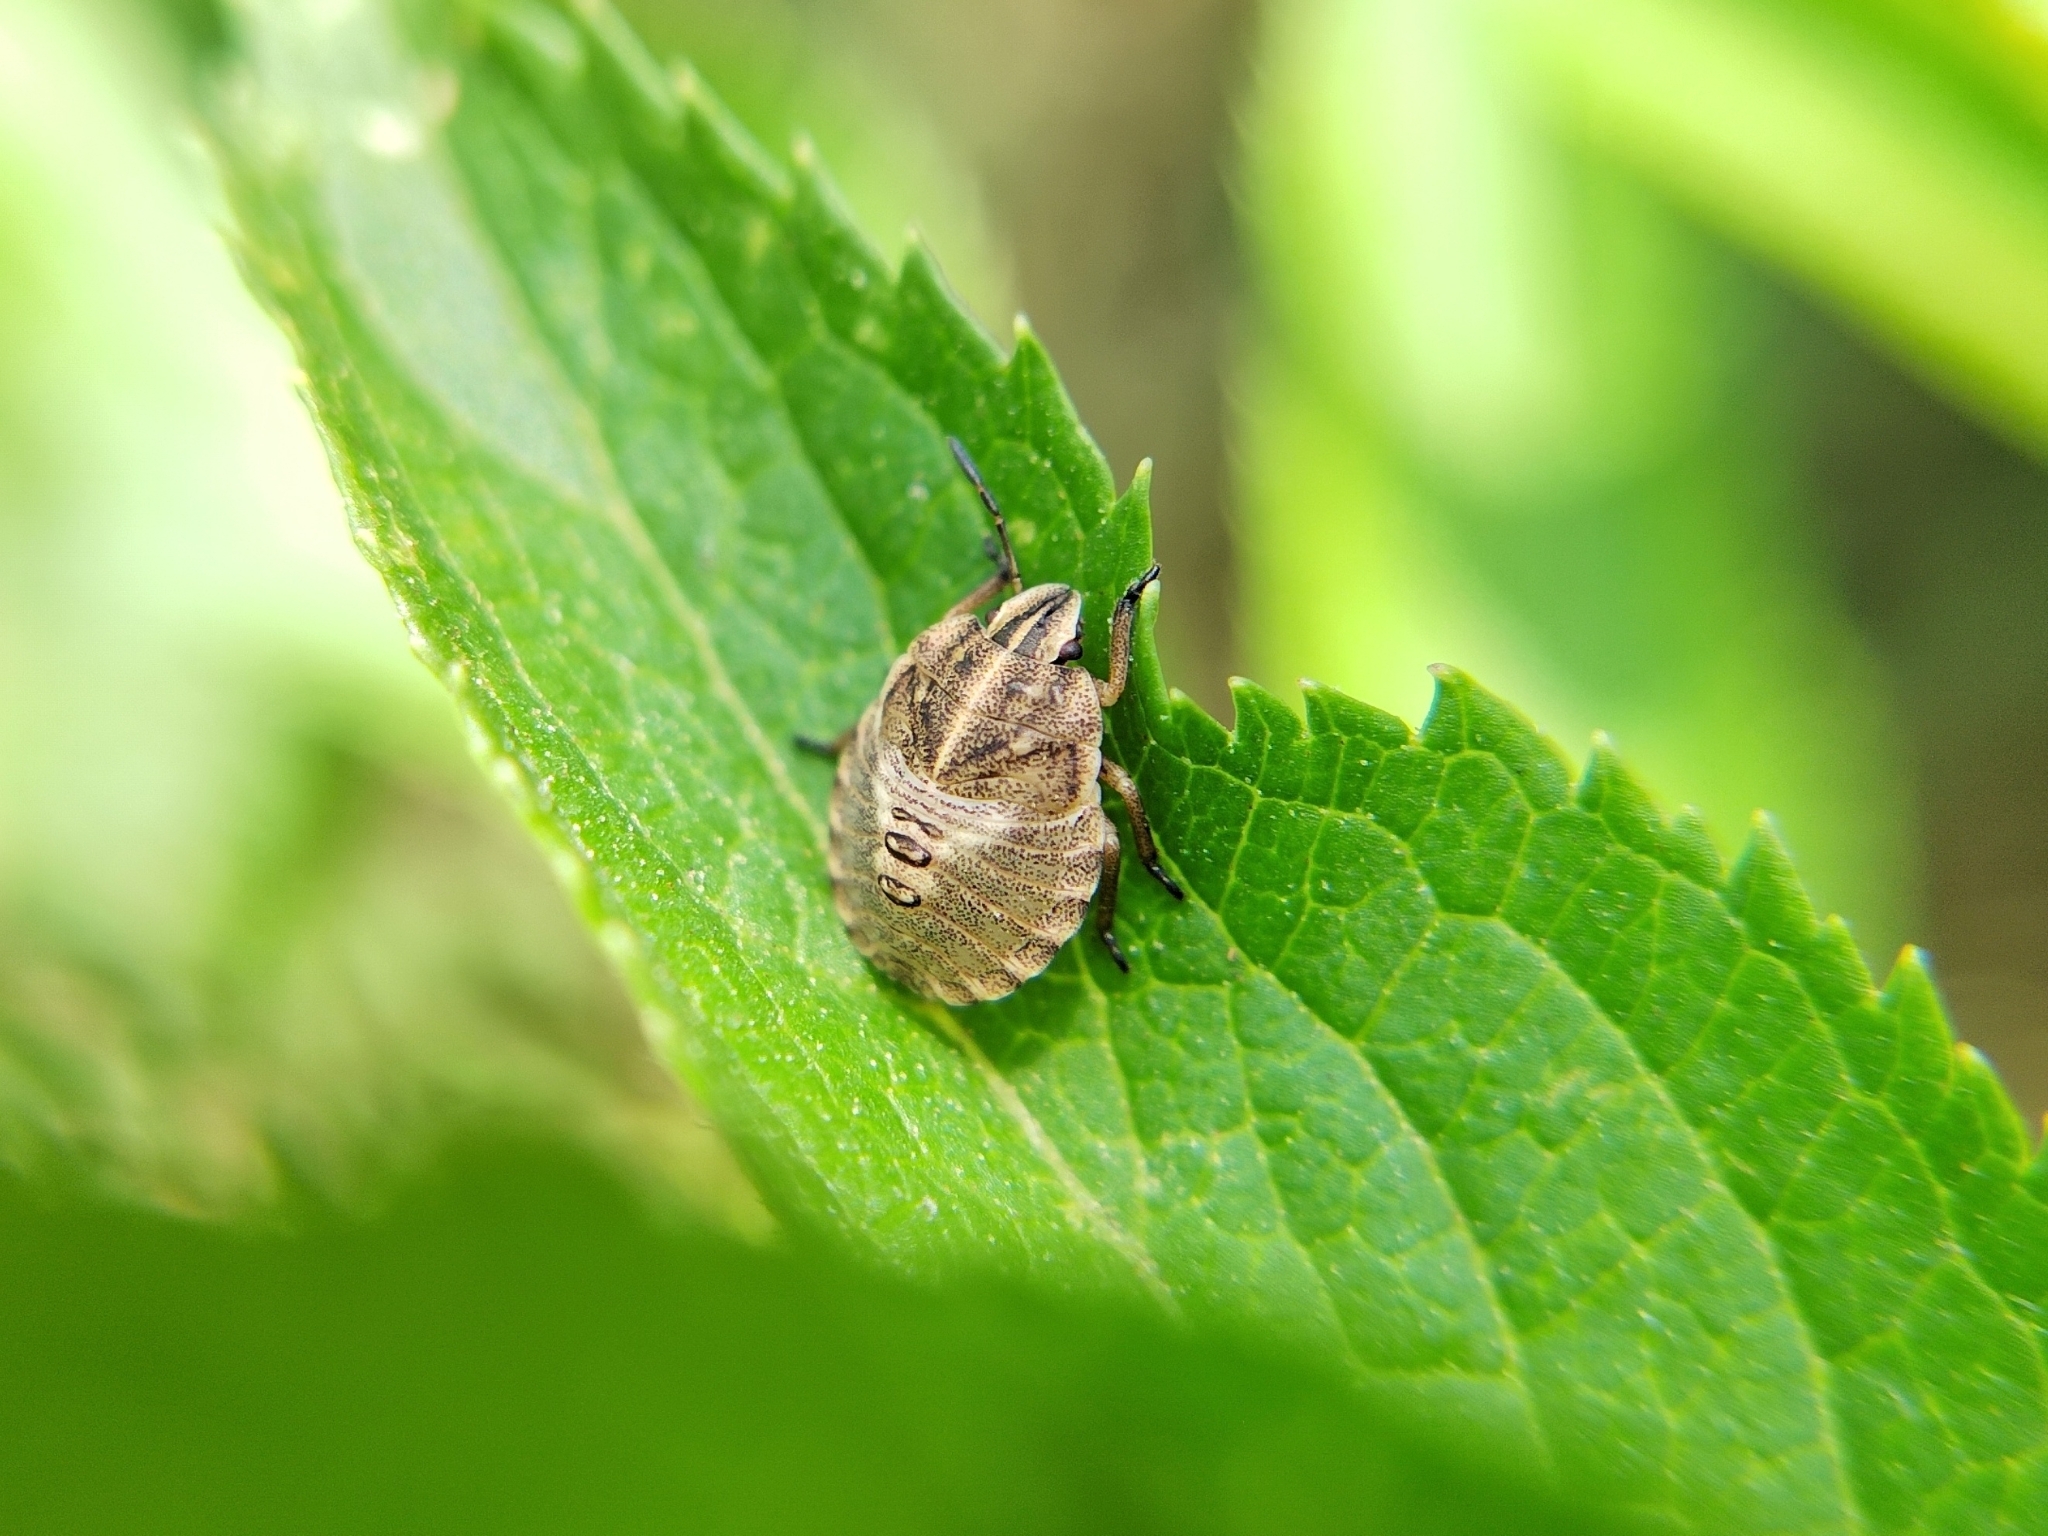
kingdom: Animalia
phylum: Arthropoda
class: Insecta
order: Hemiptera
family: Pentatomidae
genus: Graphosoma
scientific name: Graphosoma italicum
